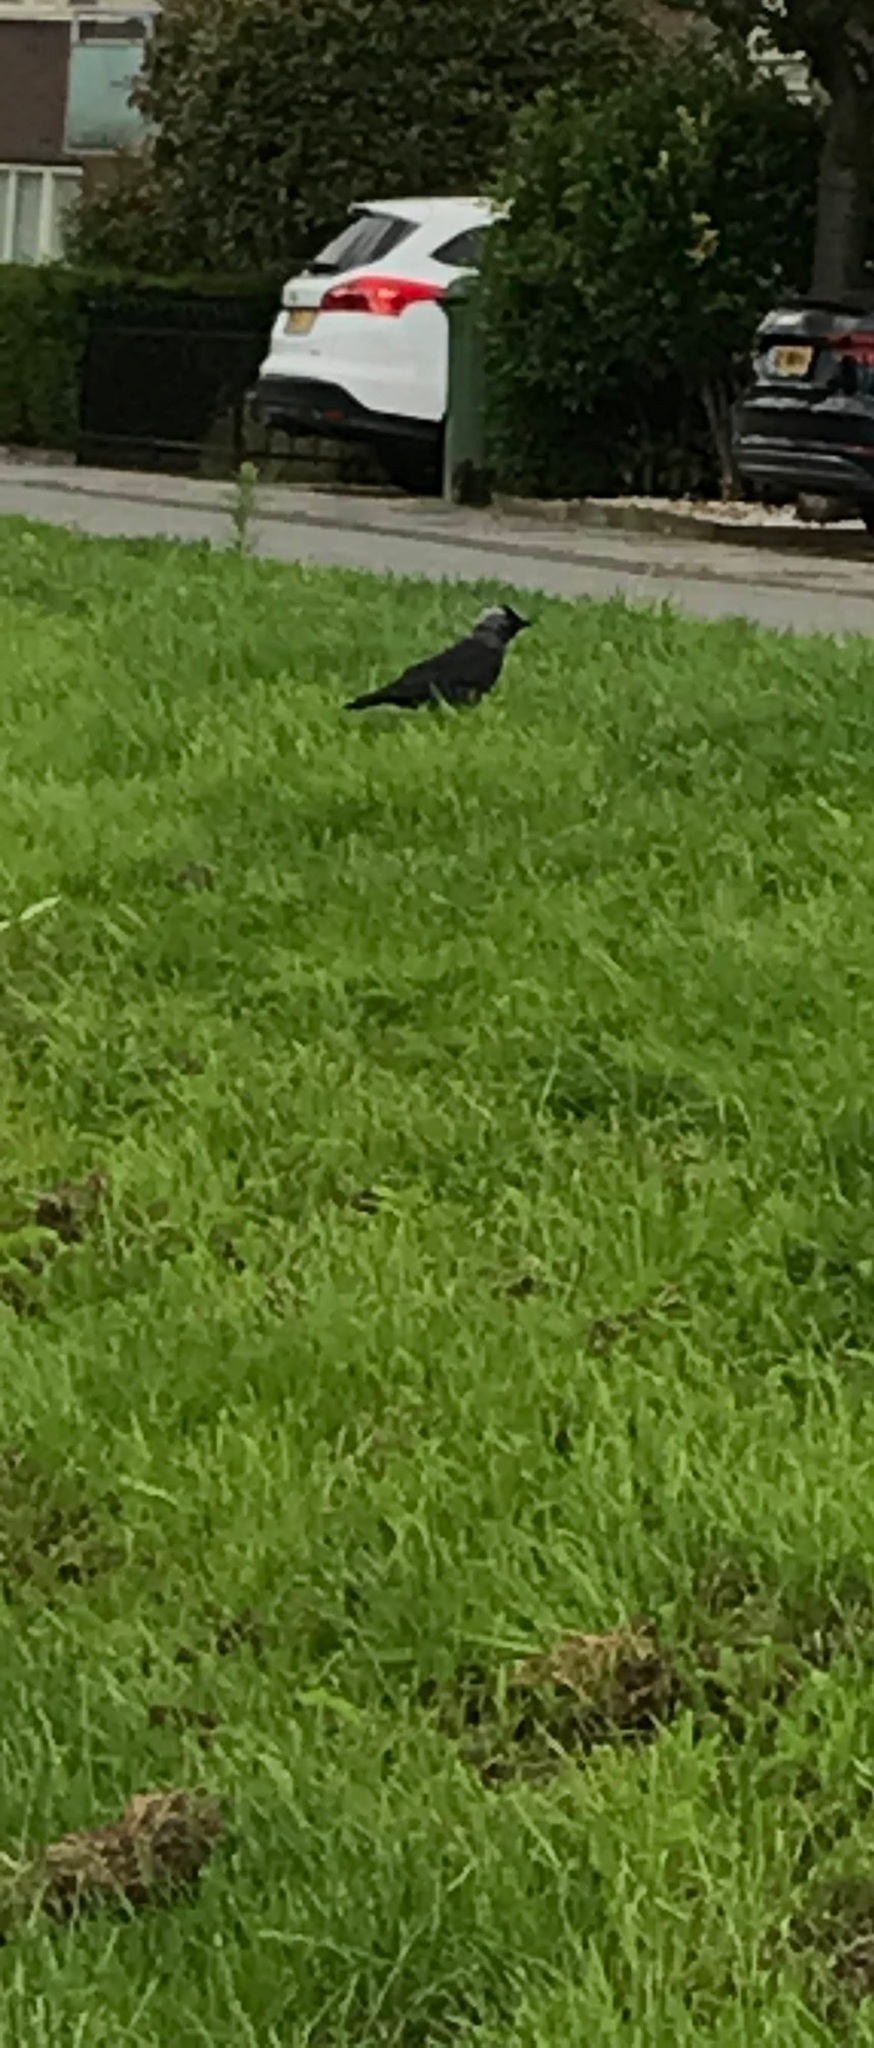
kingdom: Animalia
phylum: Chordata
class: Aves
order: Passeriformes
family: Corvidae
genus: Coloeus
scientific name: Coloeus monedula
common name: Western jackdaw
